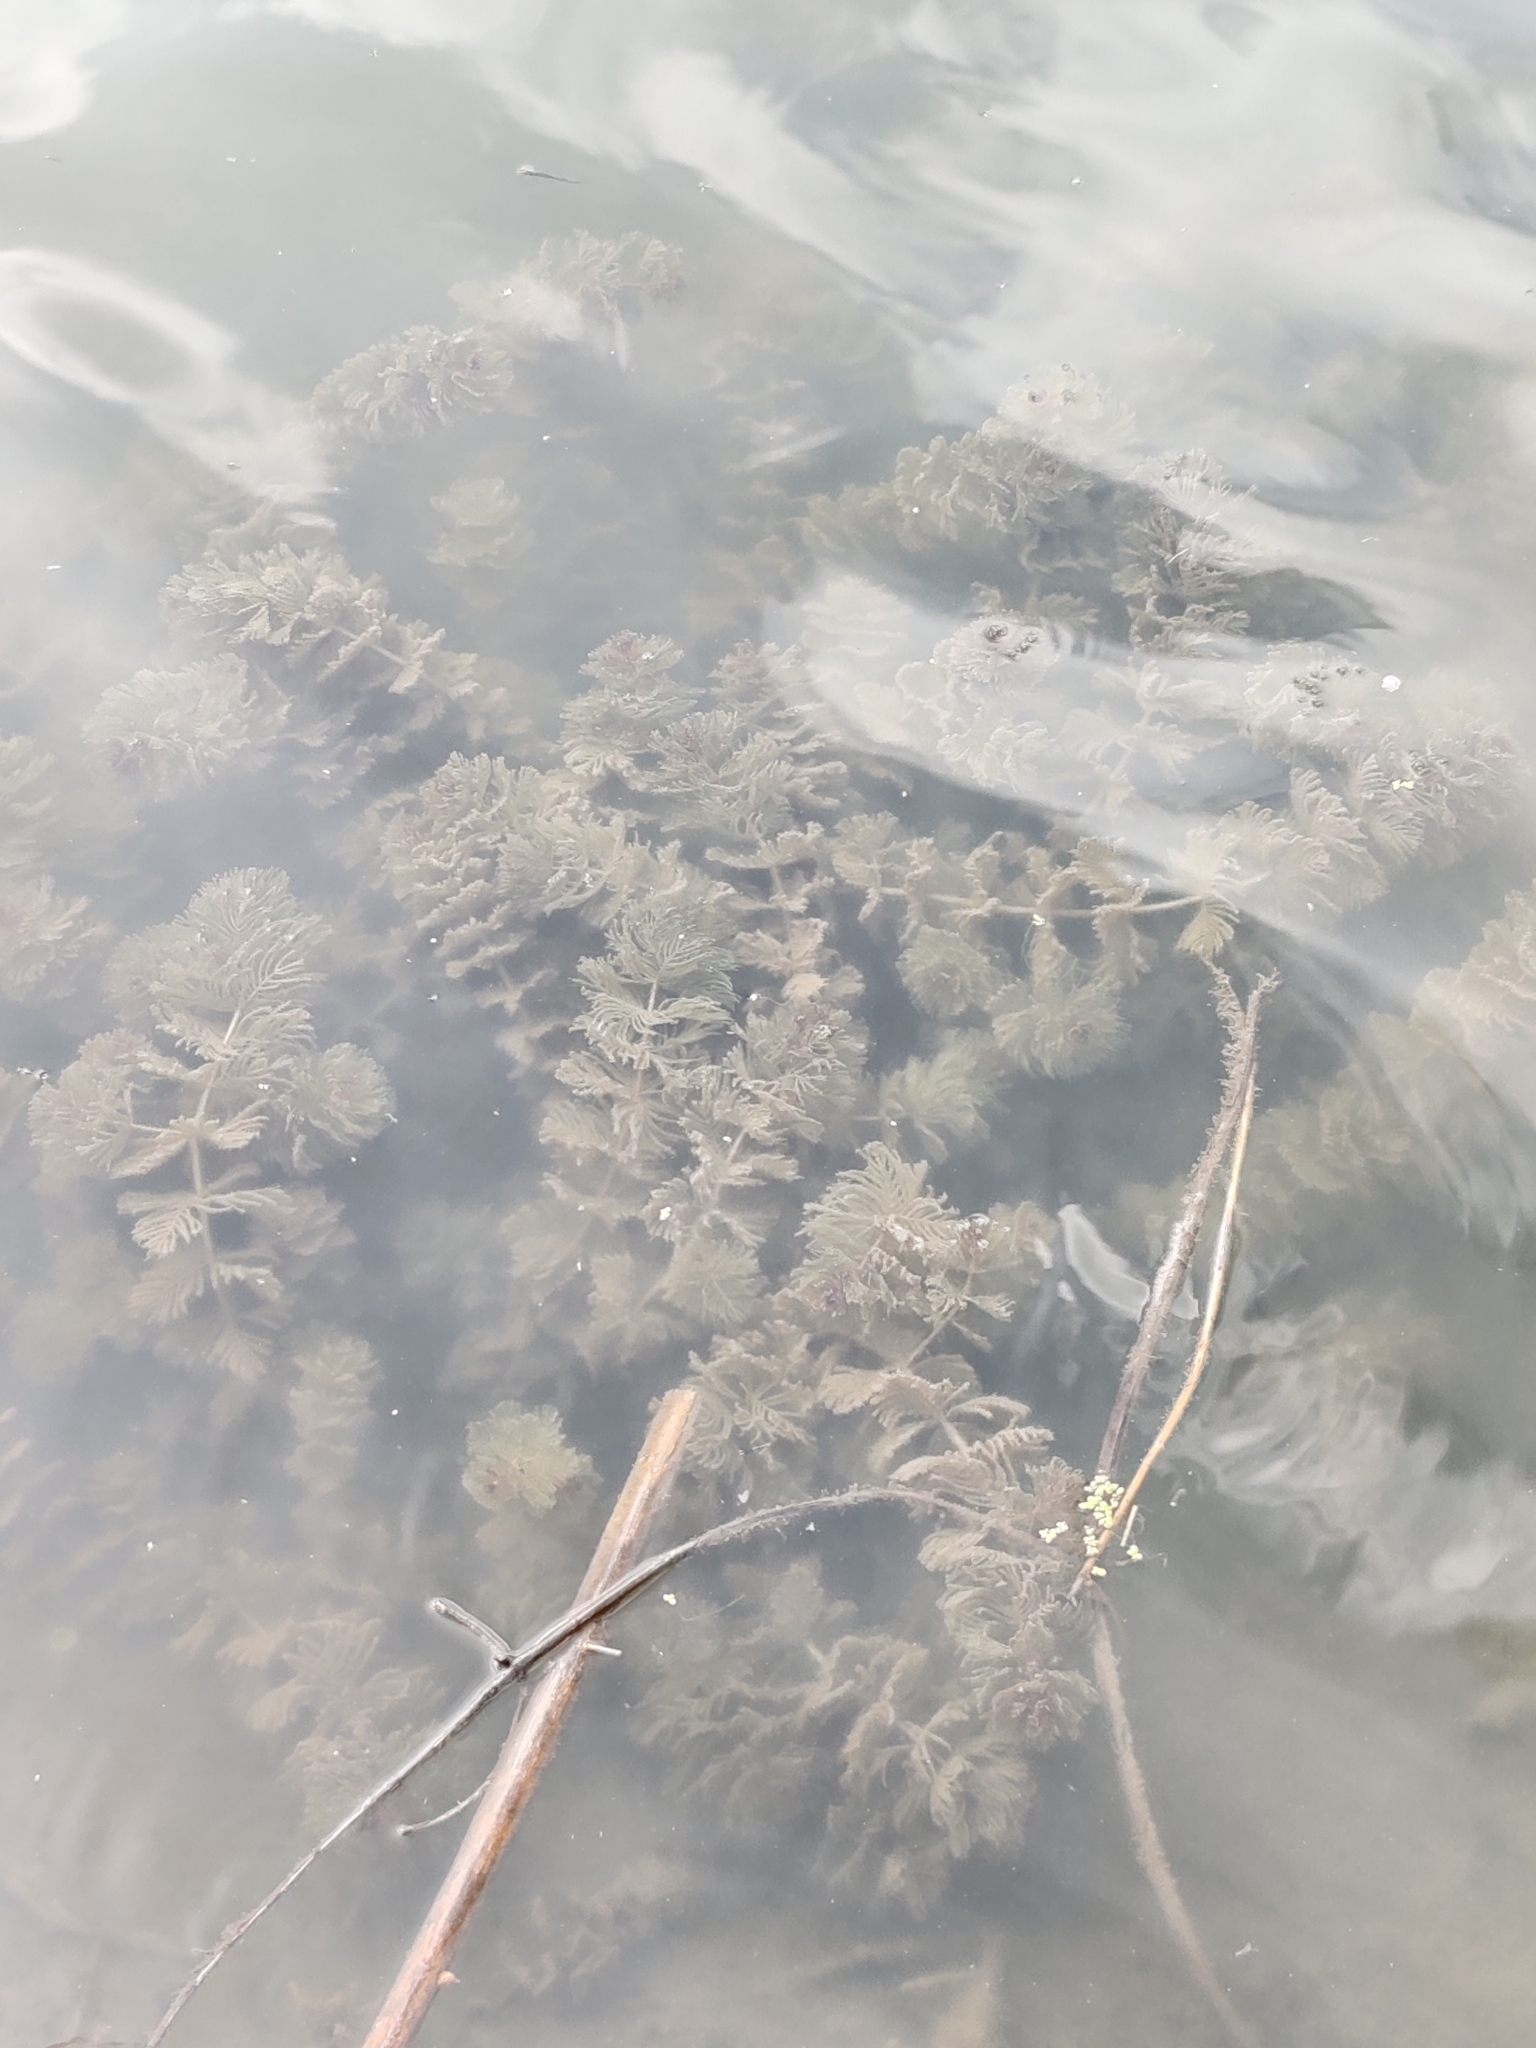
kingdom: Plantae
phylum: Tracheophyta
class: Magnoliopsida
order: Saxifragales
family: Haloragaceae
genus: Myriophyllum
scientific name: Myriophyllum spicatum
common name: Spiked water-milfoil
